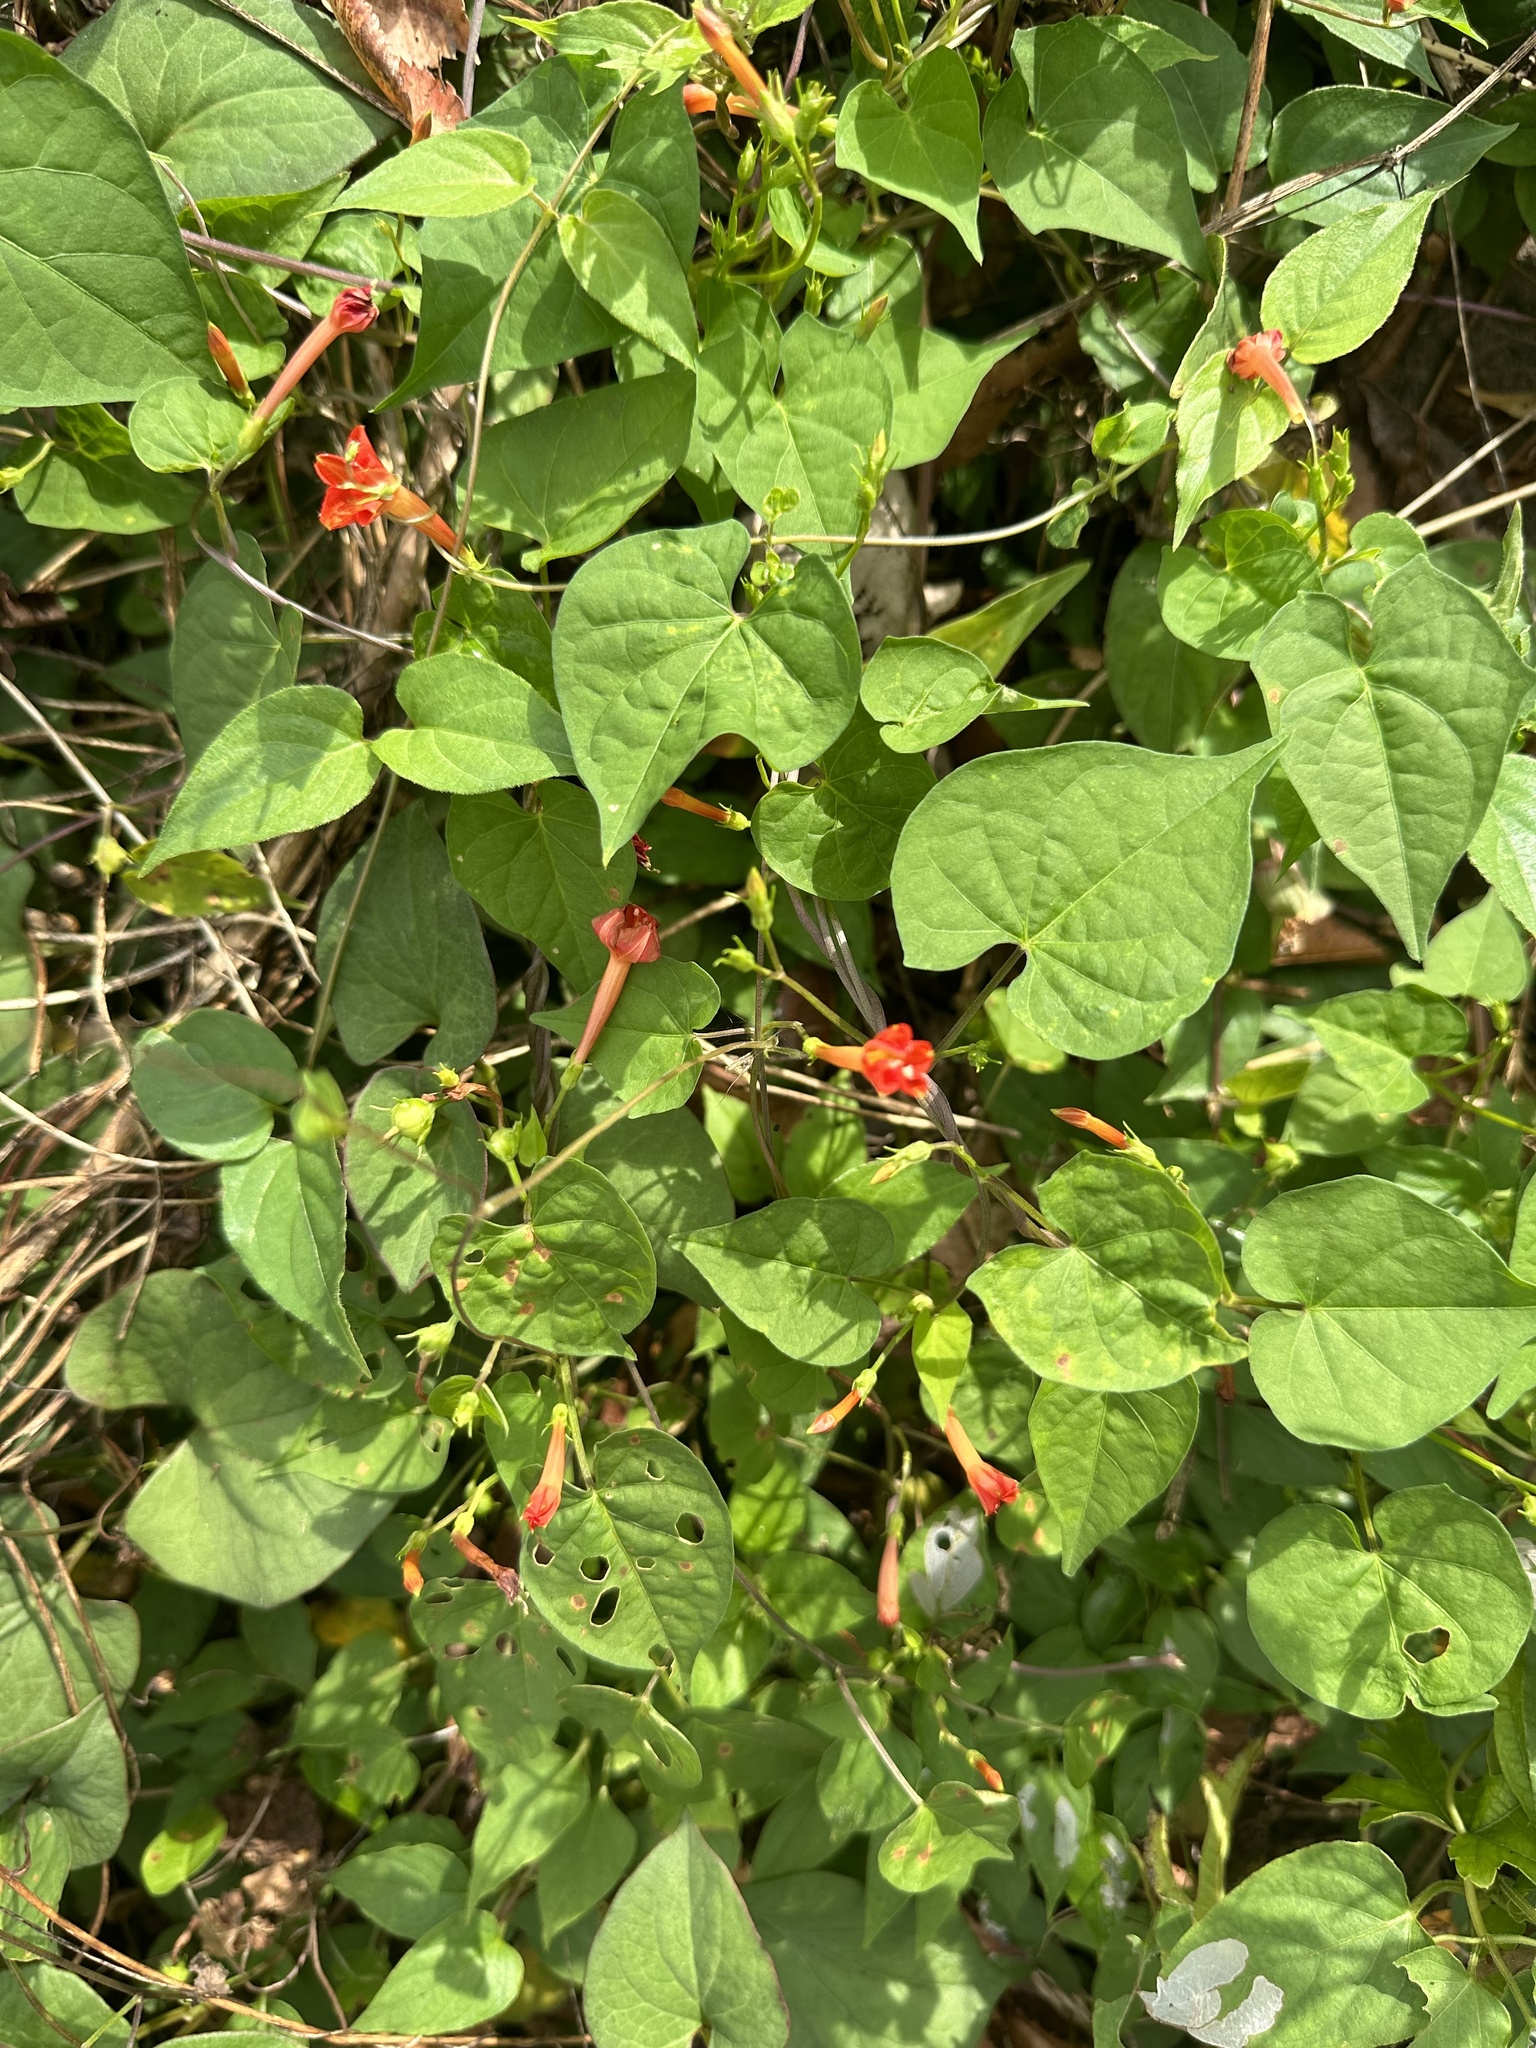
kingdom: Plantae
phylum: Tracheophyta
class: Magnoliopsida
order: Solanales
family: Convolvulaceae
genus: Ipomoea
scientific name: Ipomoea coccinea
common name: Red morning-glory
